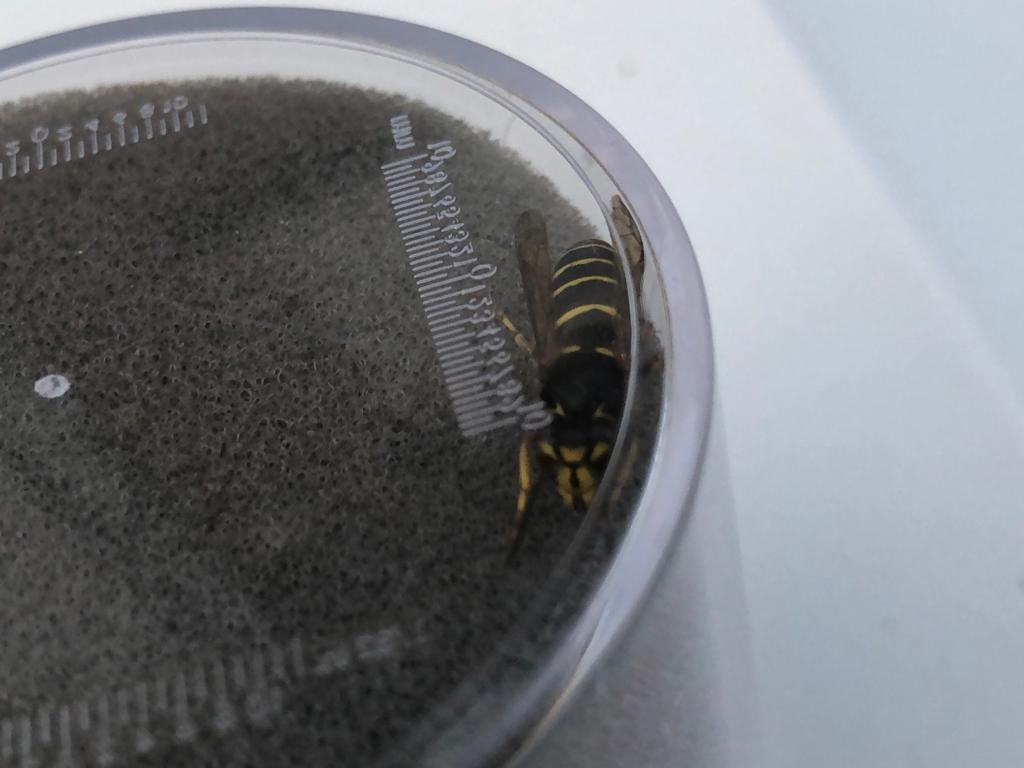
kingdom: Animalia
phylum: Arthropoda
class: Insecta
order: Hymenoptera
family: Vespidae
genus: Dolichovespula
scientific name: Dolichovespula media
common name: Median wasp
